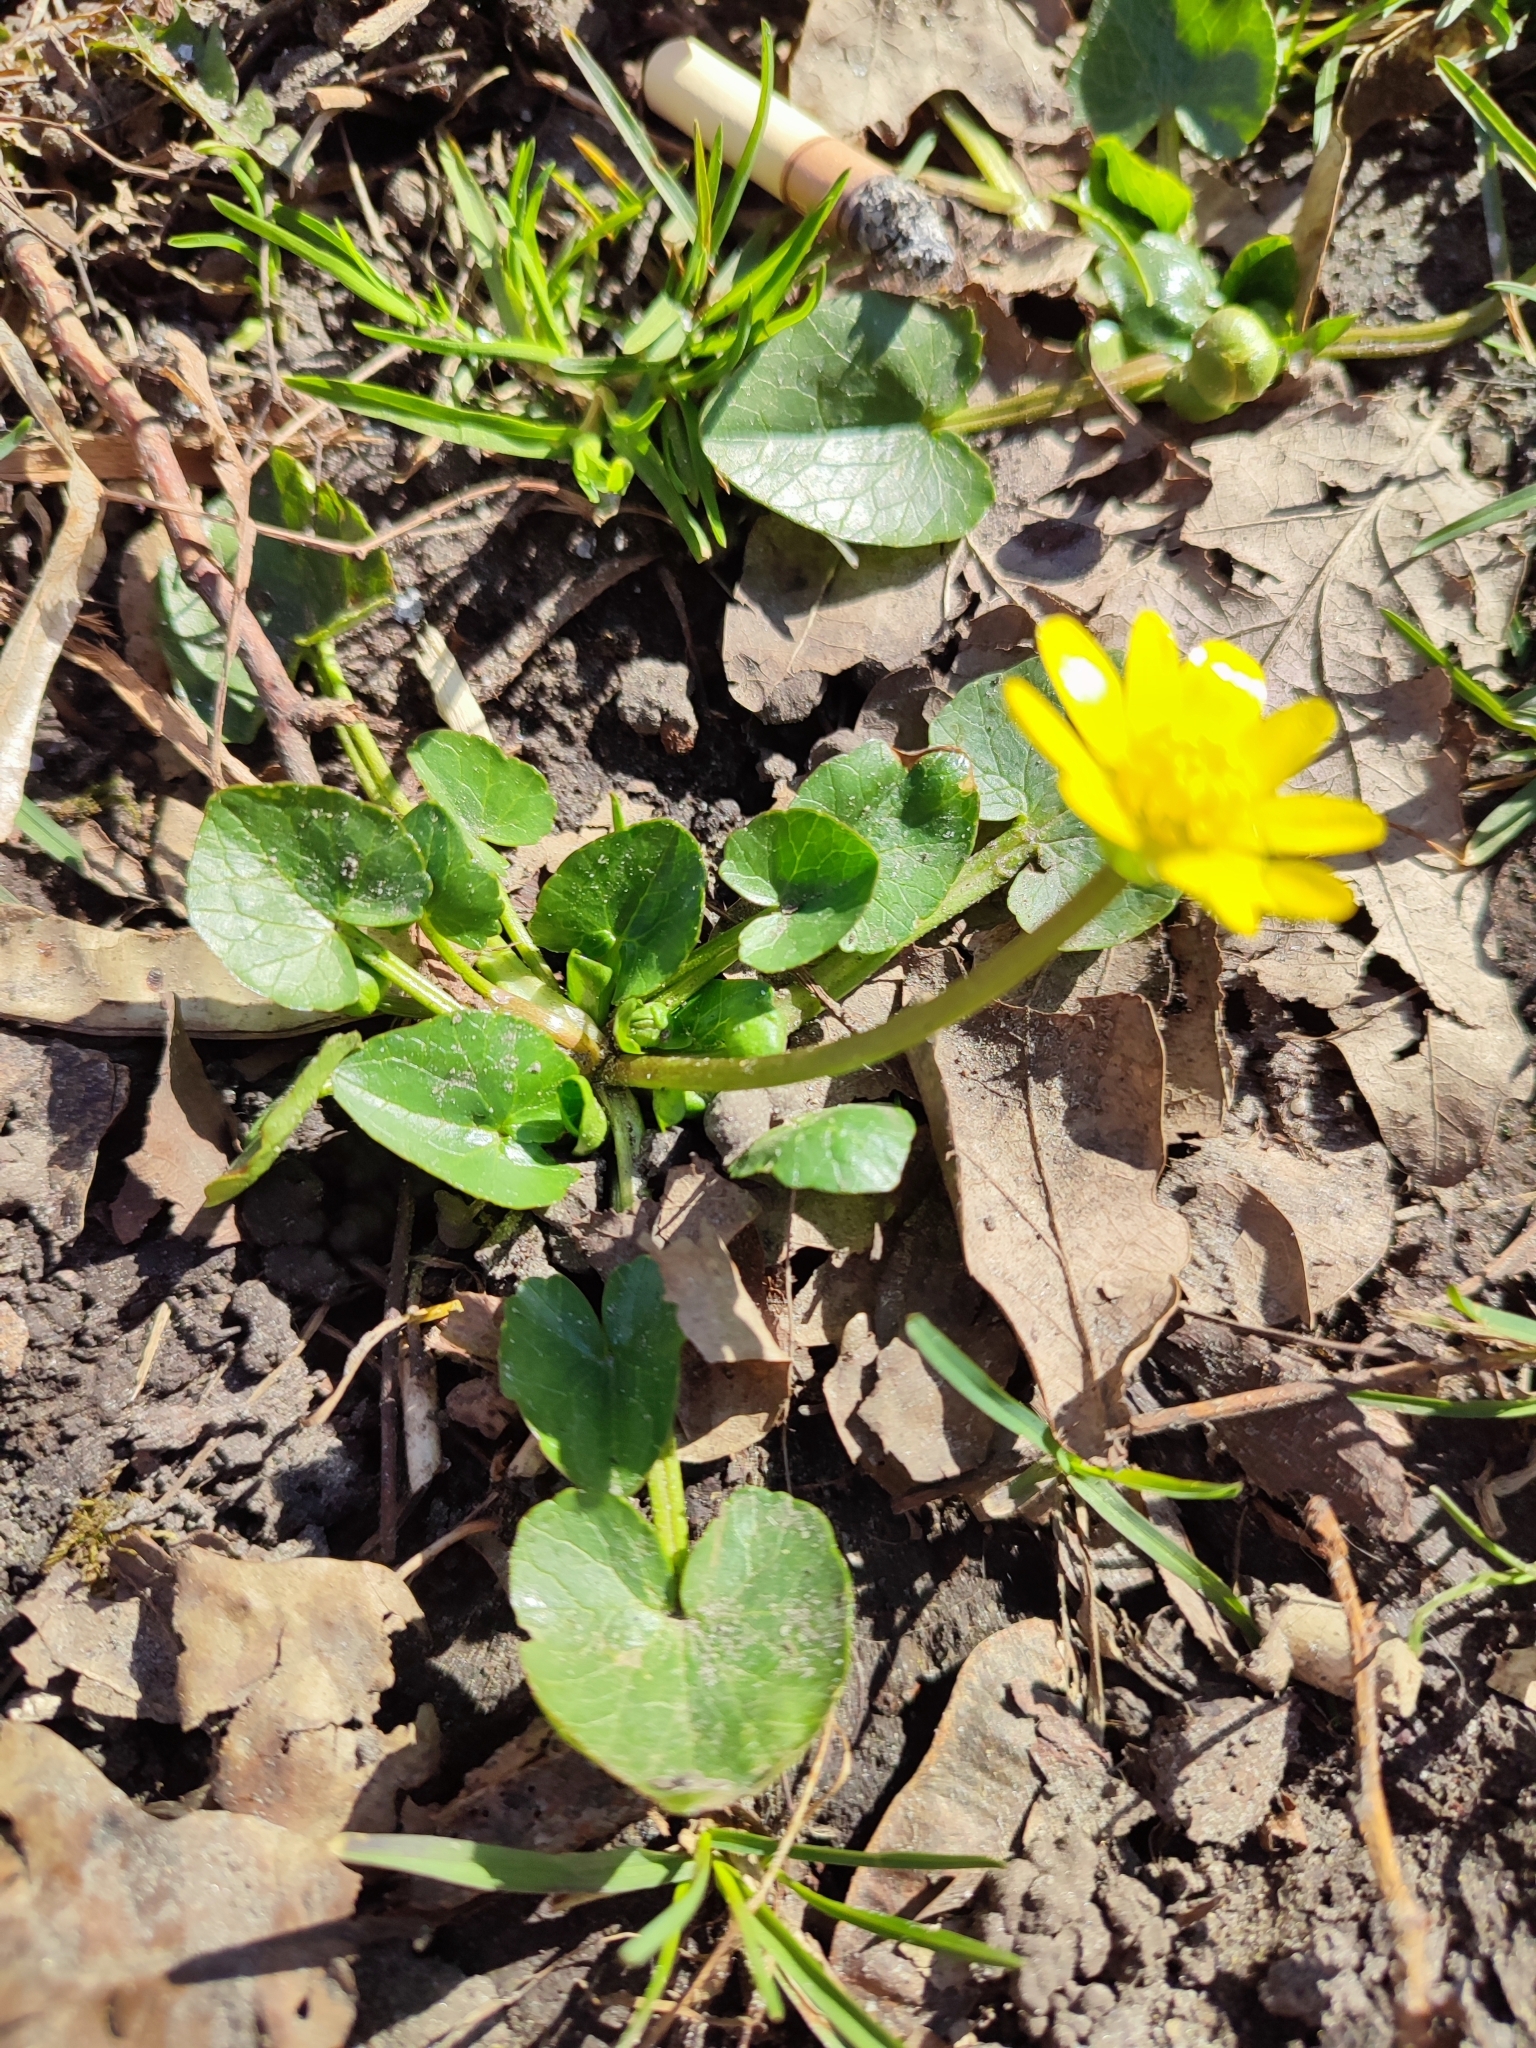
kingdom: Plantae
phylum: Tracheophyta
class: Magnoliopsida
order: Ranunculales
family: Ranunculaceae
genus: Ficaria
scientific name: Ficaria verna
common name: Lesser celandine
